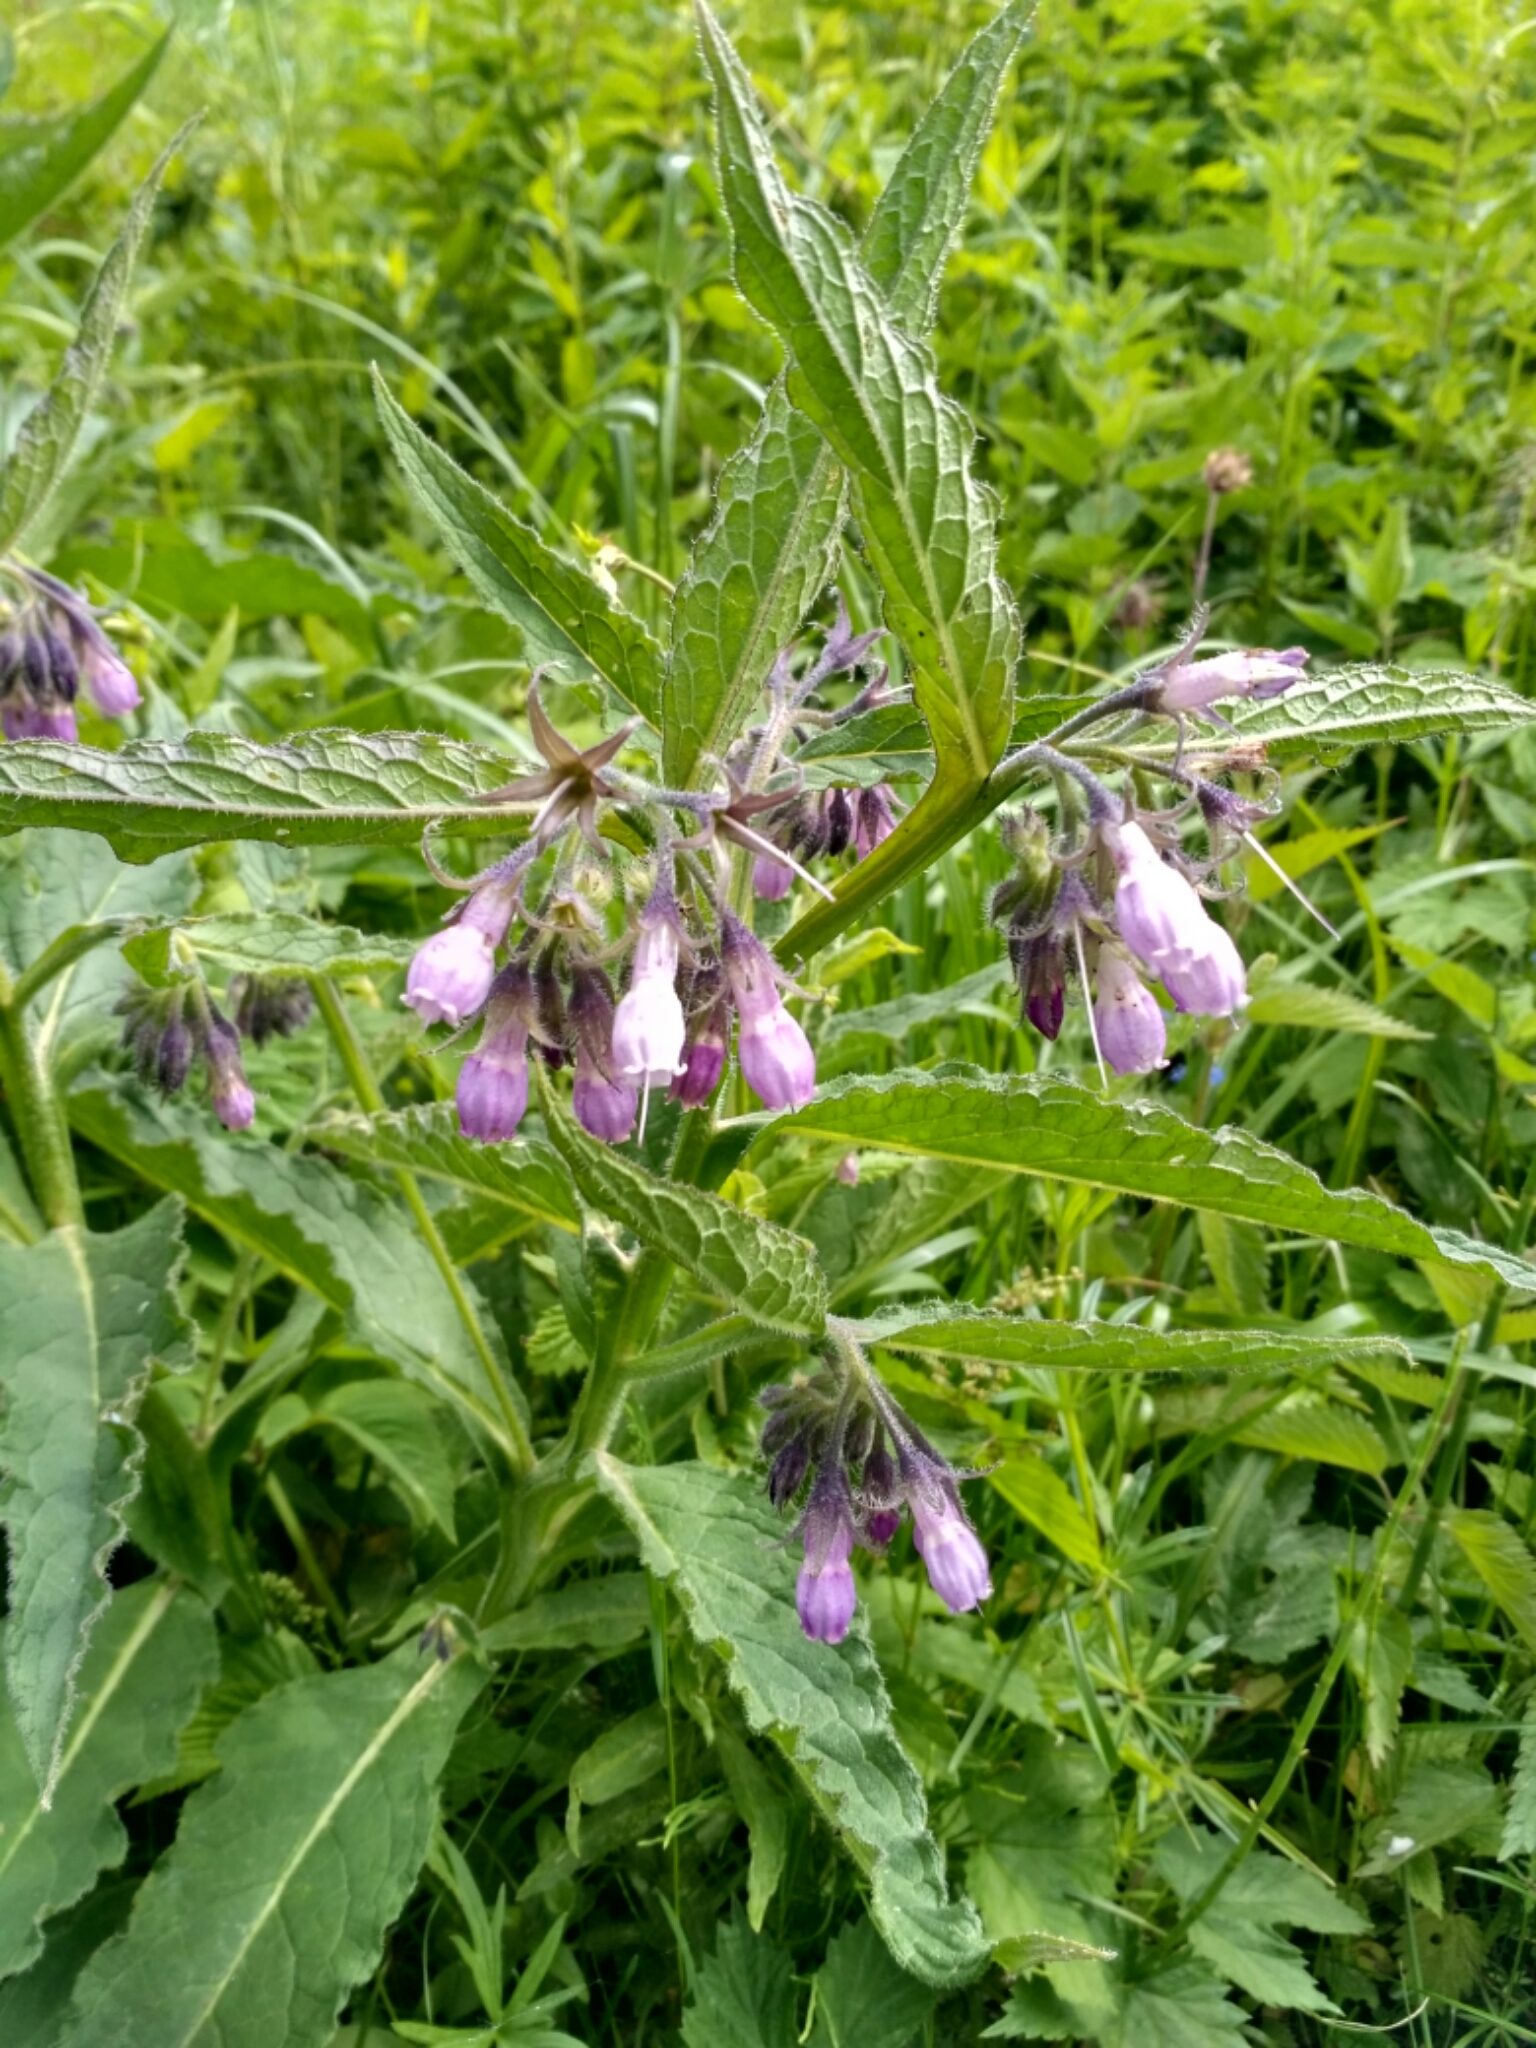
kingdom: Plantae
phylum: Tracheophyta
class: Magnoliopsida
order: Boraginales
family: Boraginaceae
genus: Symphytum
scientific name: Symphytum officinale
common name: Common comfrey
